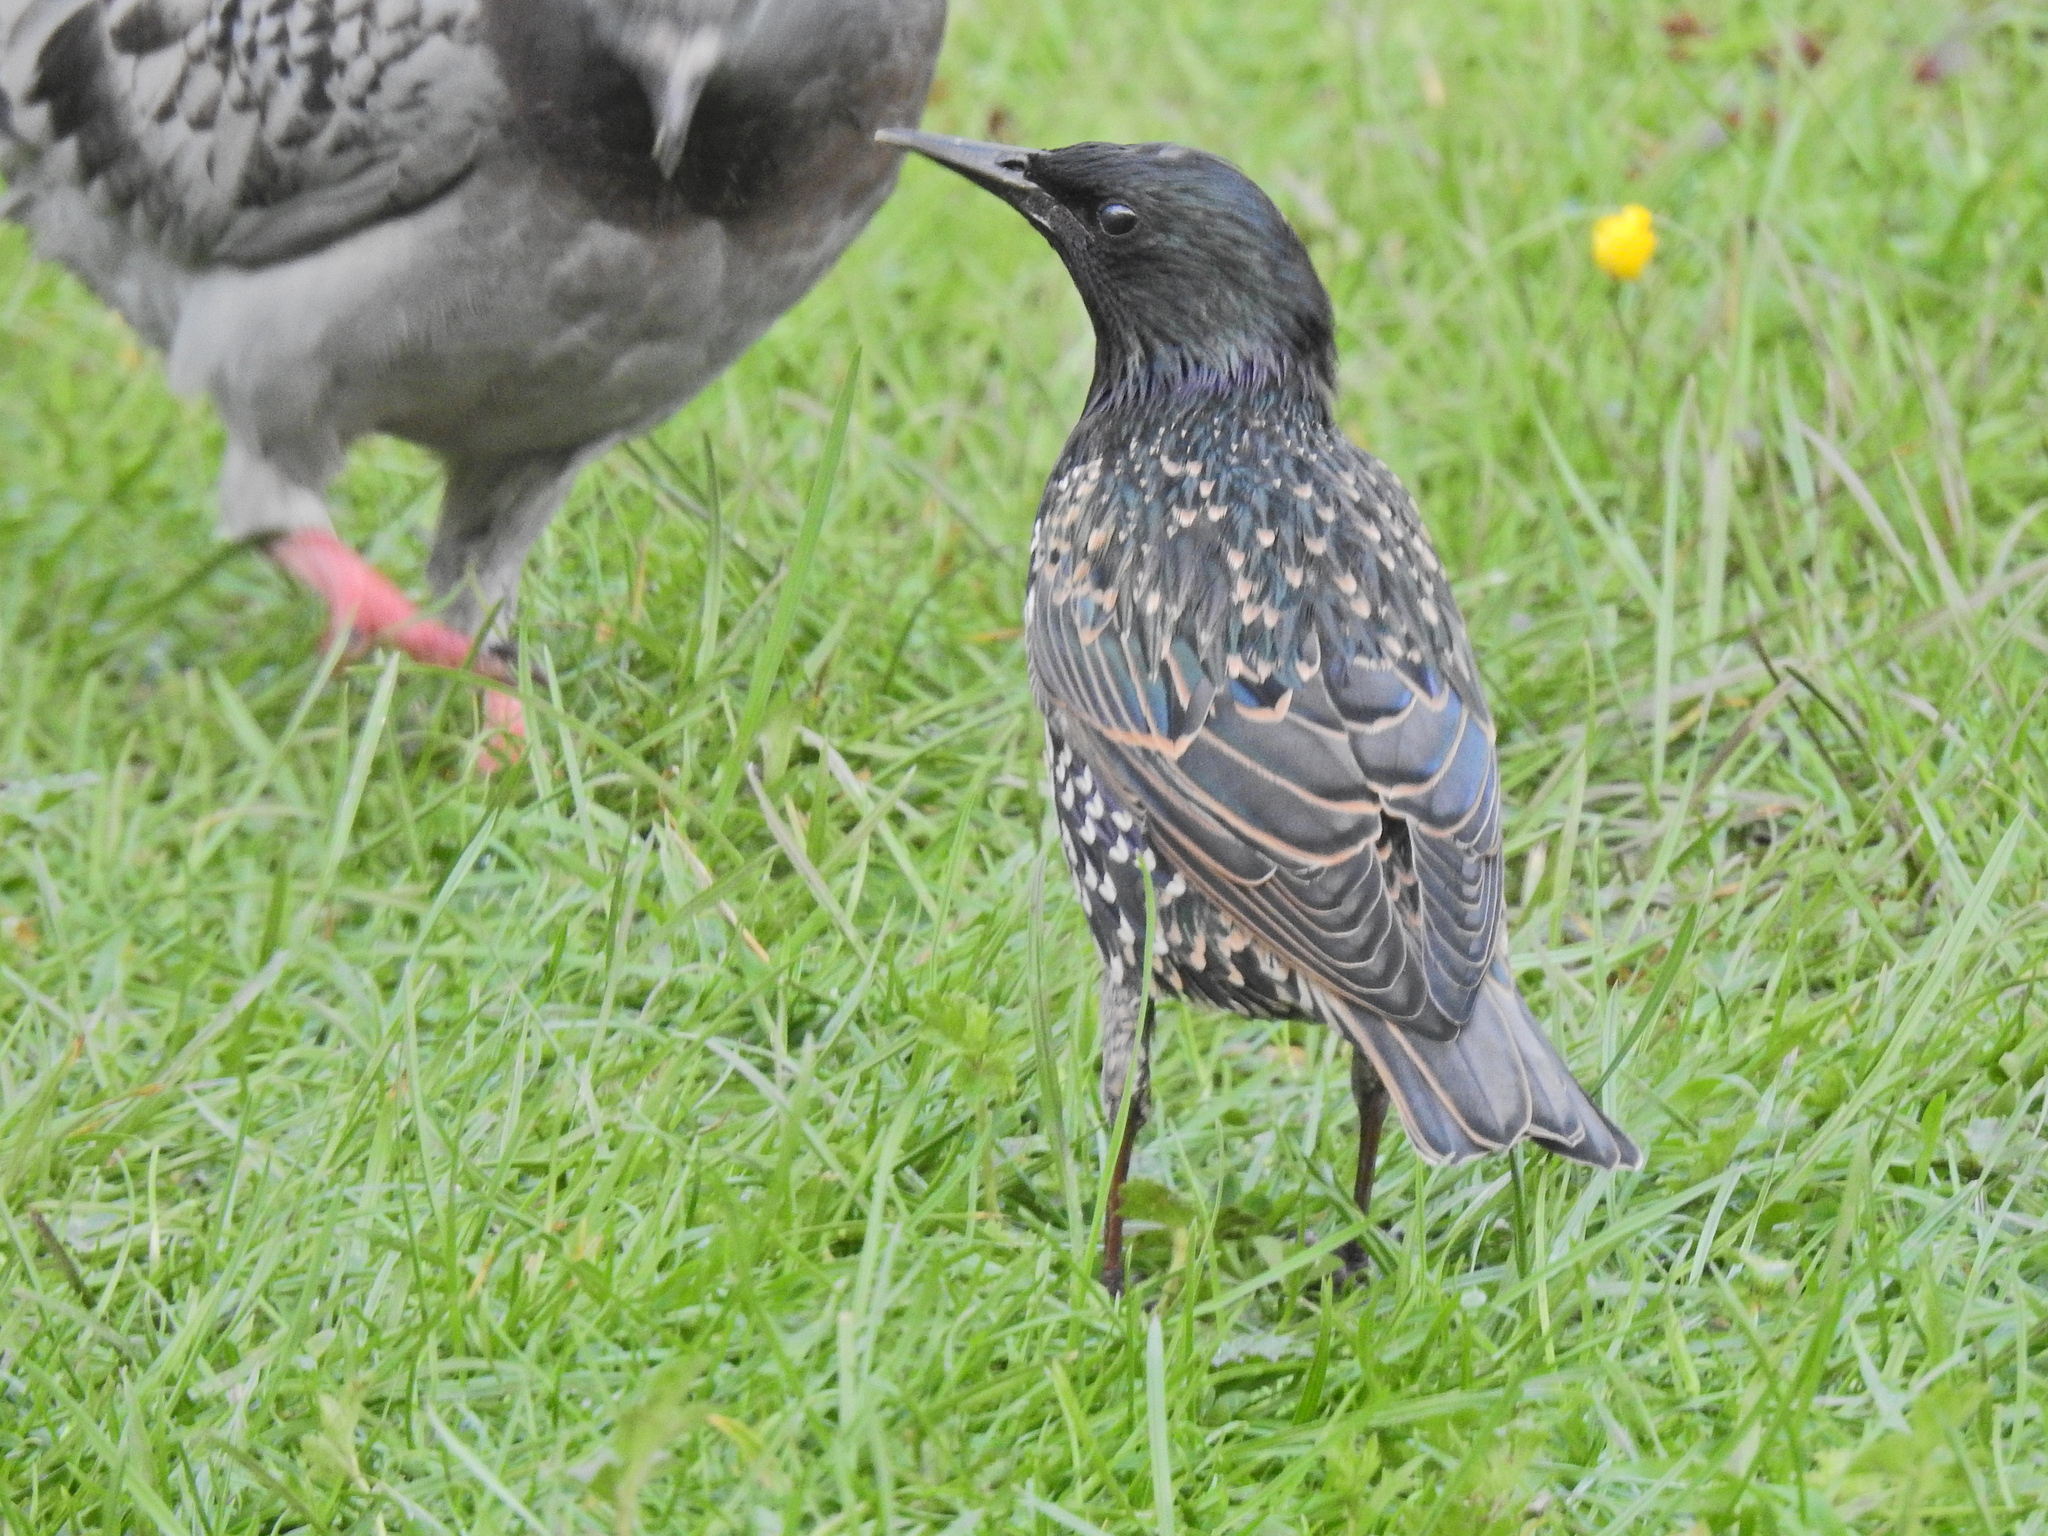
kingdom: Animalia
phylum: Chordata
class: Aves
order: Passeriformes
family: Sturnidae
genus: Sturnus
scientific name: Sturnus vulgaris
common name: Common starling
